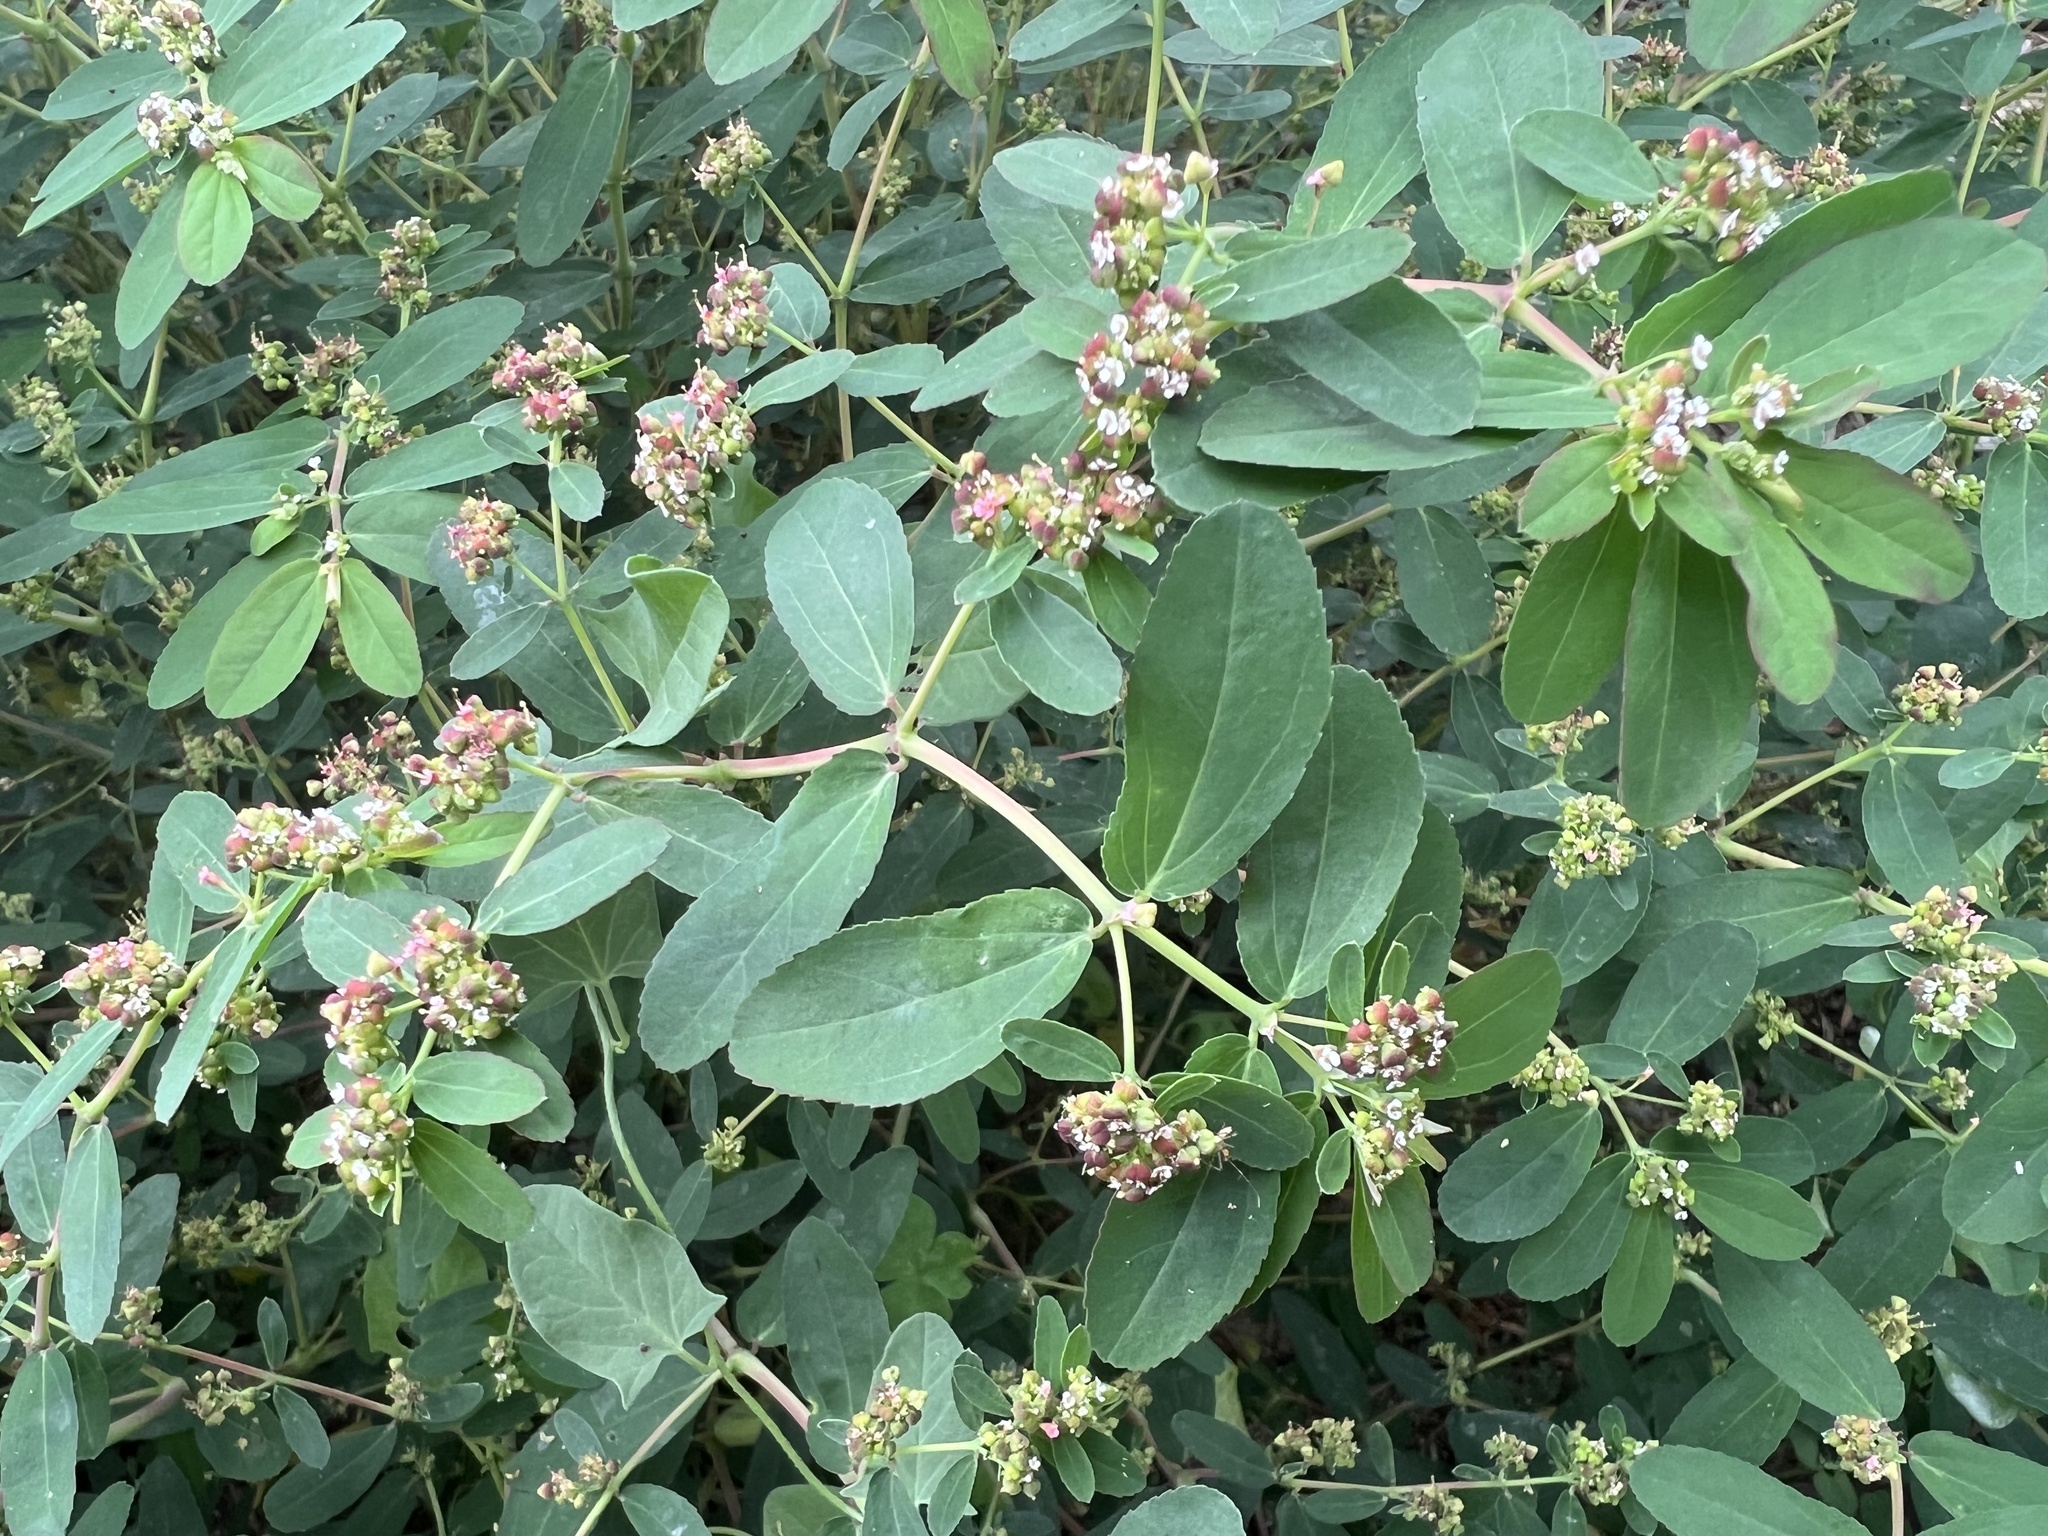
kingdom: Plantae
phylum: Tracheophyta
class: Magnoliopsida
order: Malpighiales
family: Euphorbiaceae
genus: Euphorbia
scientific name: Euphorbia hypericifolia
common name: Graceful sandmat
